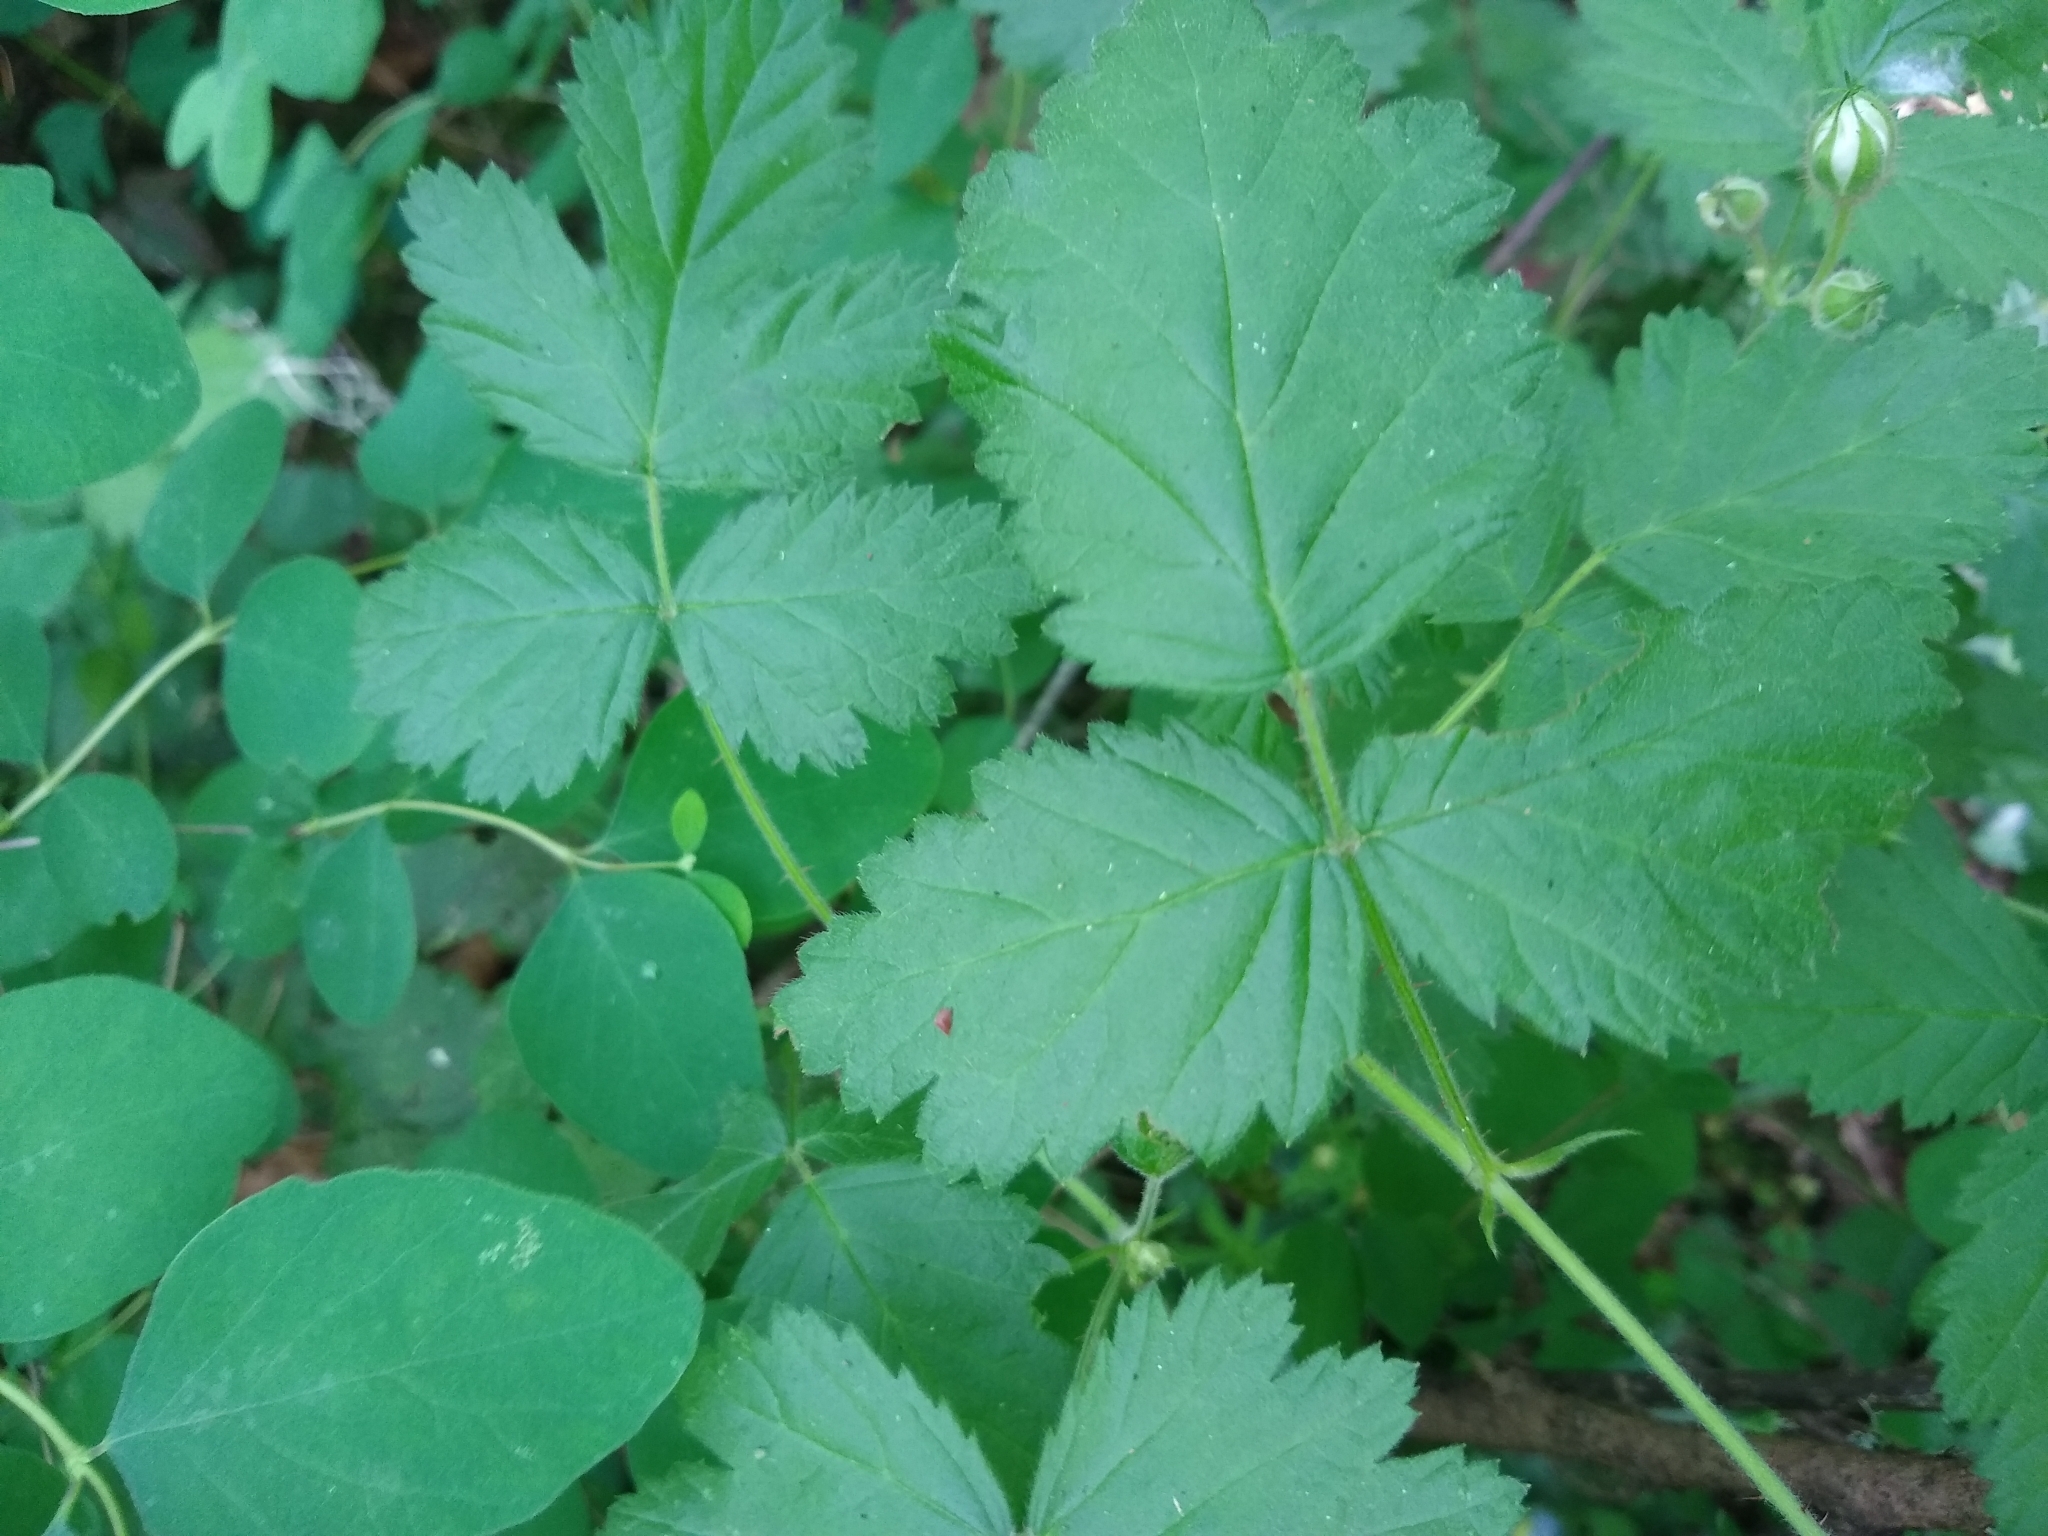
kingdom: Plantae
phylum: Tracheophyta
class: Magnoliopsida
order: Rosales
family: Rosaceae
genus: Rubus
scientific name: Rubus ursinus
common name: Pacific blackberry
